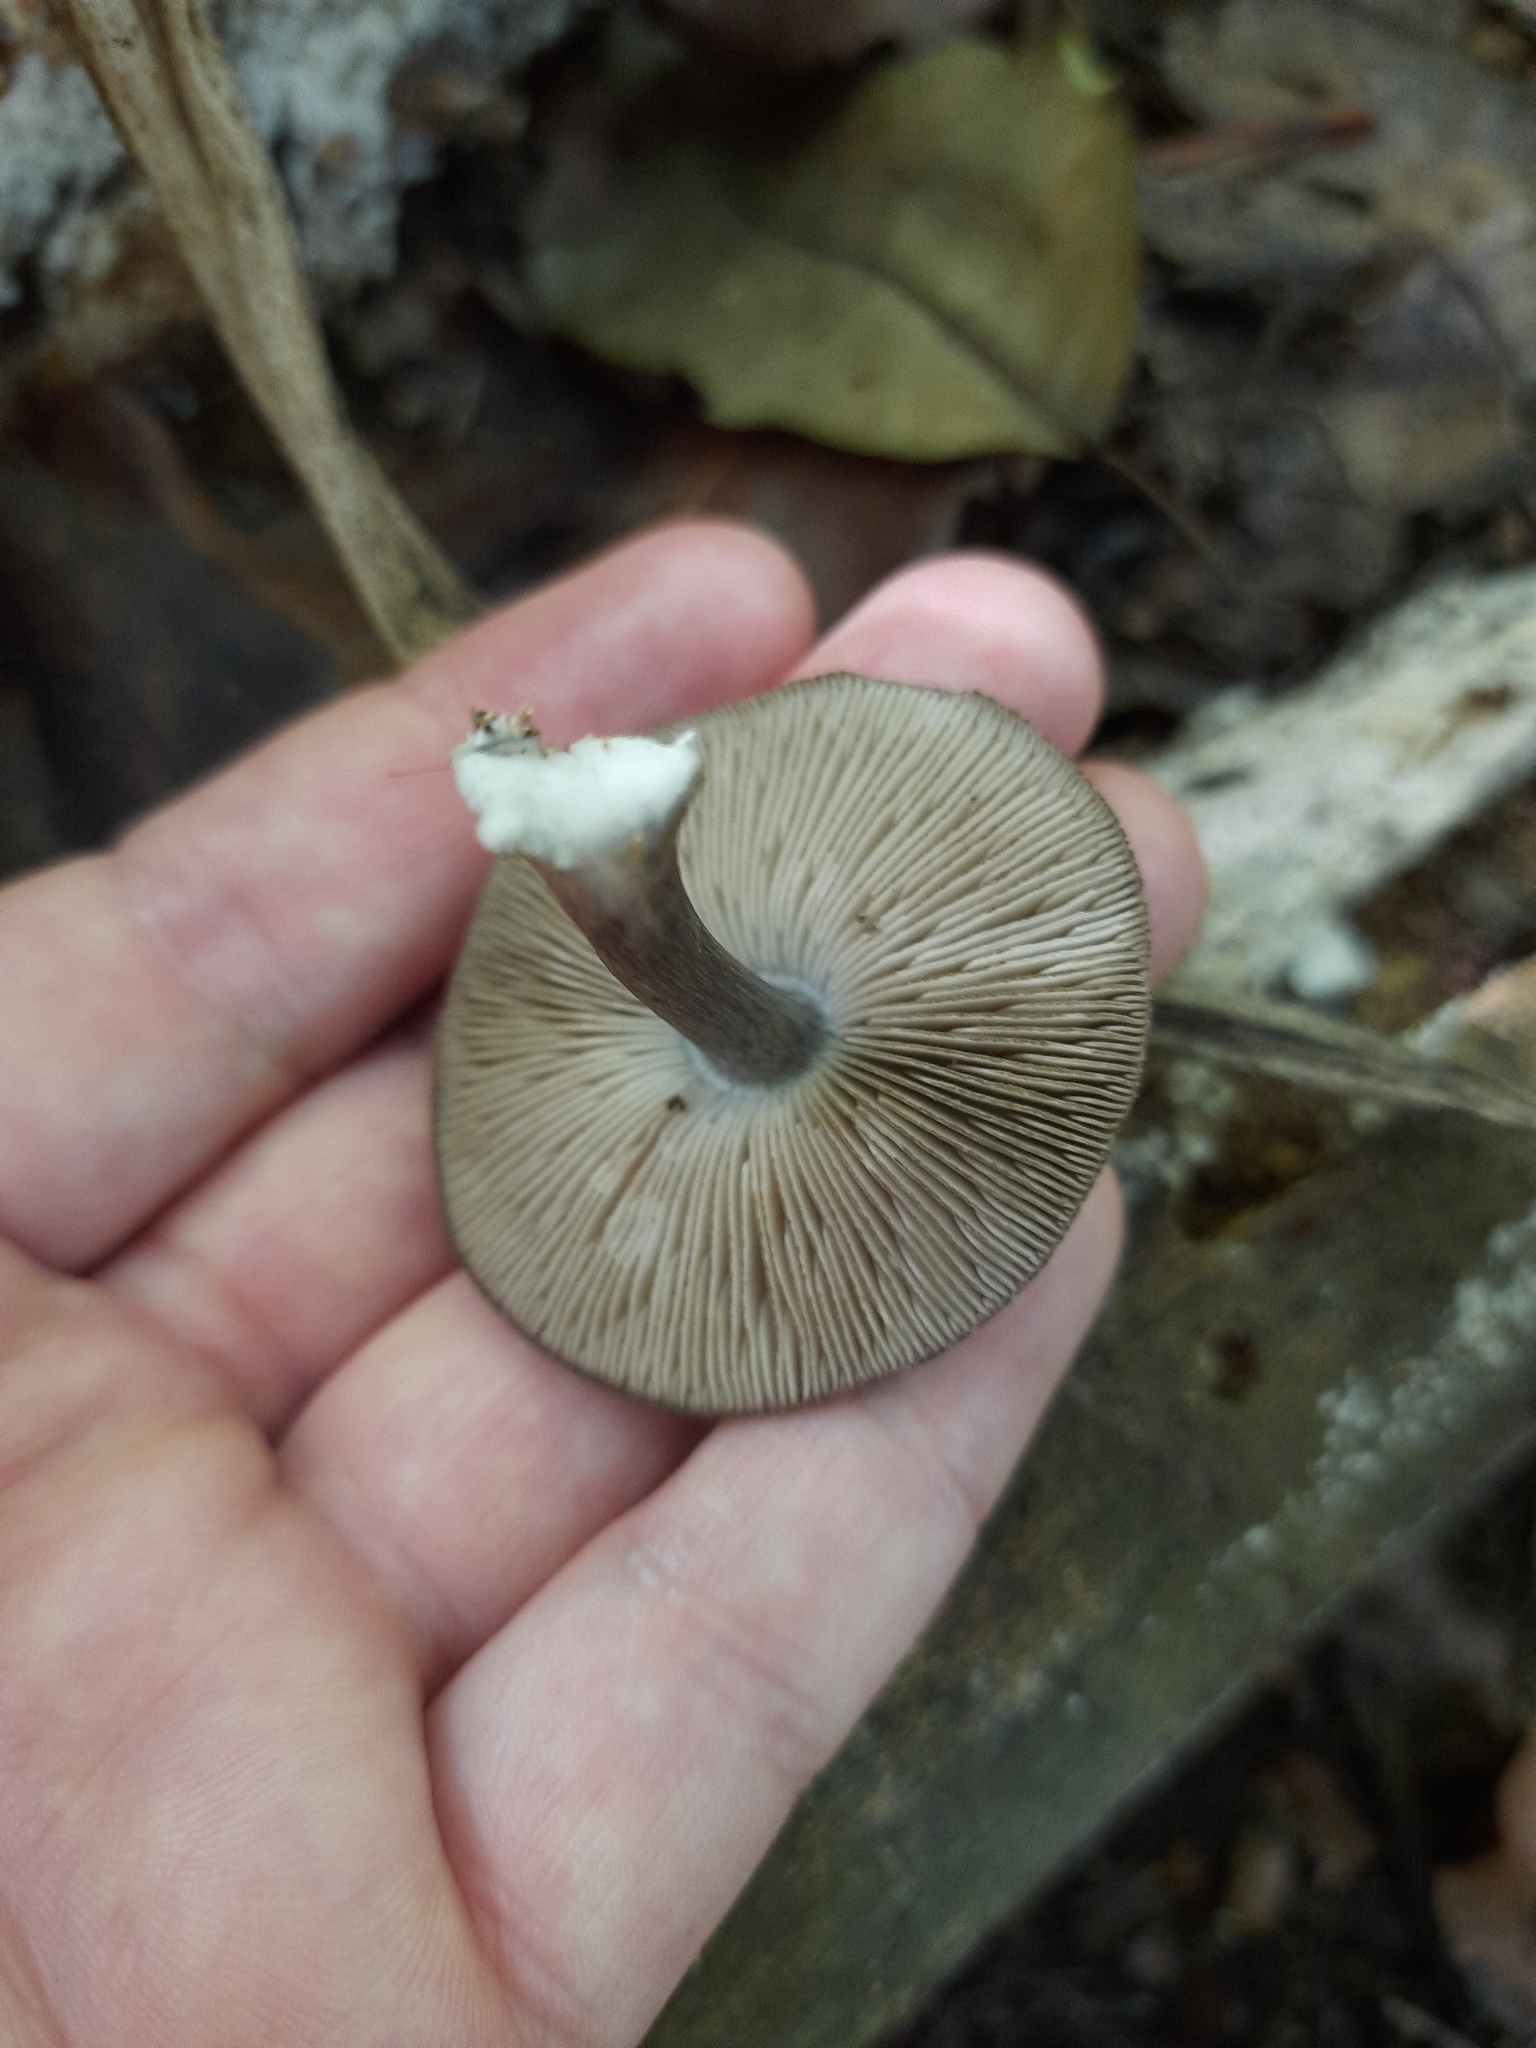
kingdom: Fungi
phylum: Basidiomycota
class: Agaricomycetes
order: Agaricales
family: Pluteaceae
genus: Pluteus
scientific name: Pluteus velutinornatus
